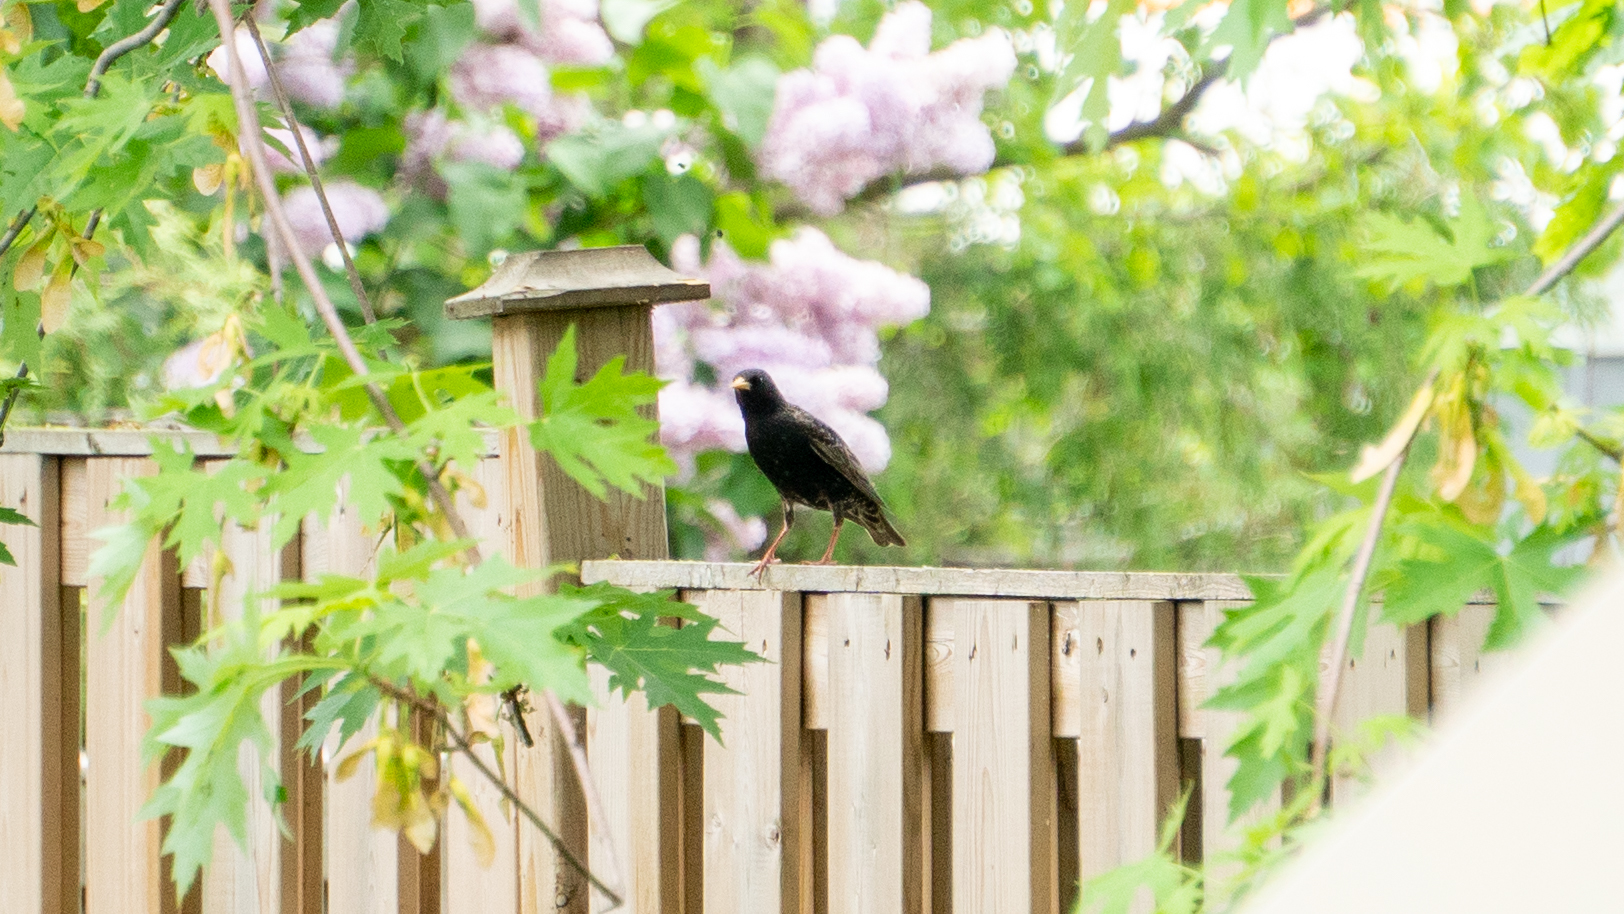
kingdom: Animalia
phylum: Chordata
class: Aves
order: Passeriformes
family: Sturnidae
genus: Sturnus
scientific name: Sturnus vulgaris
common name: Common starling
